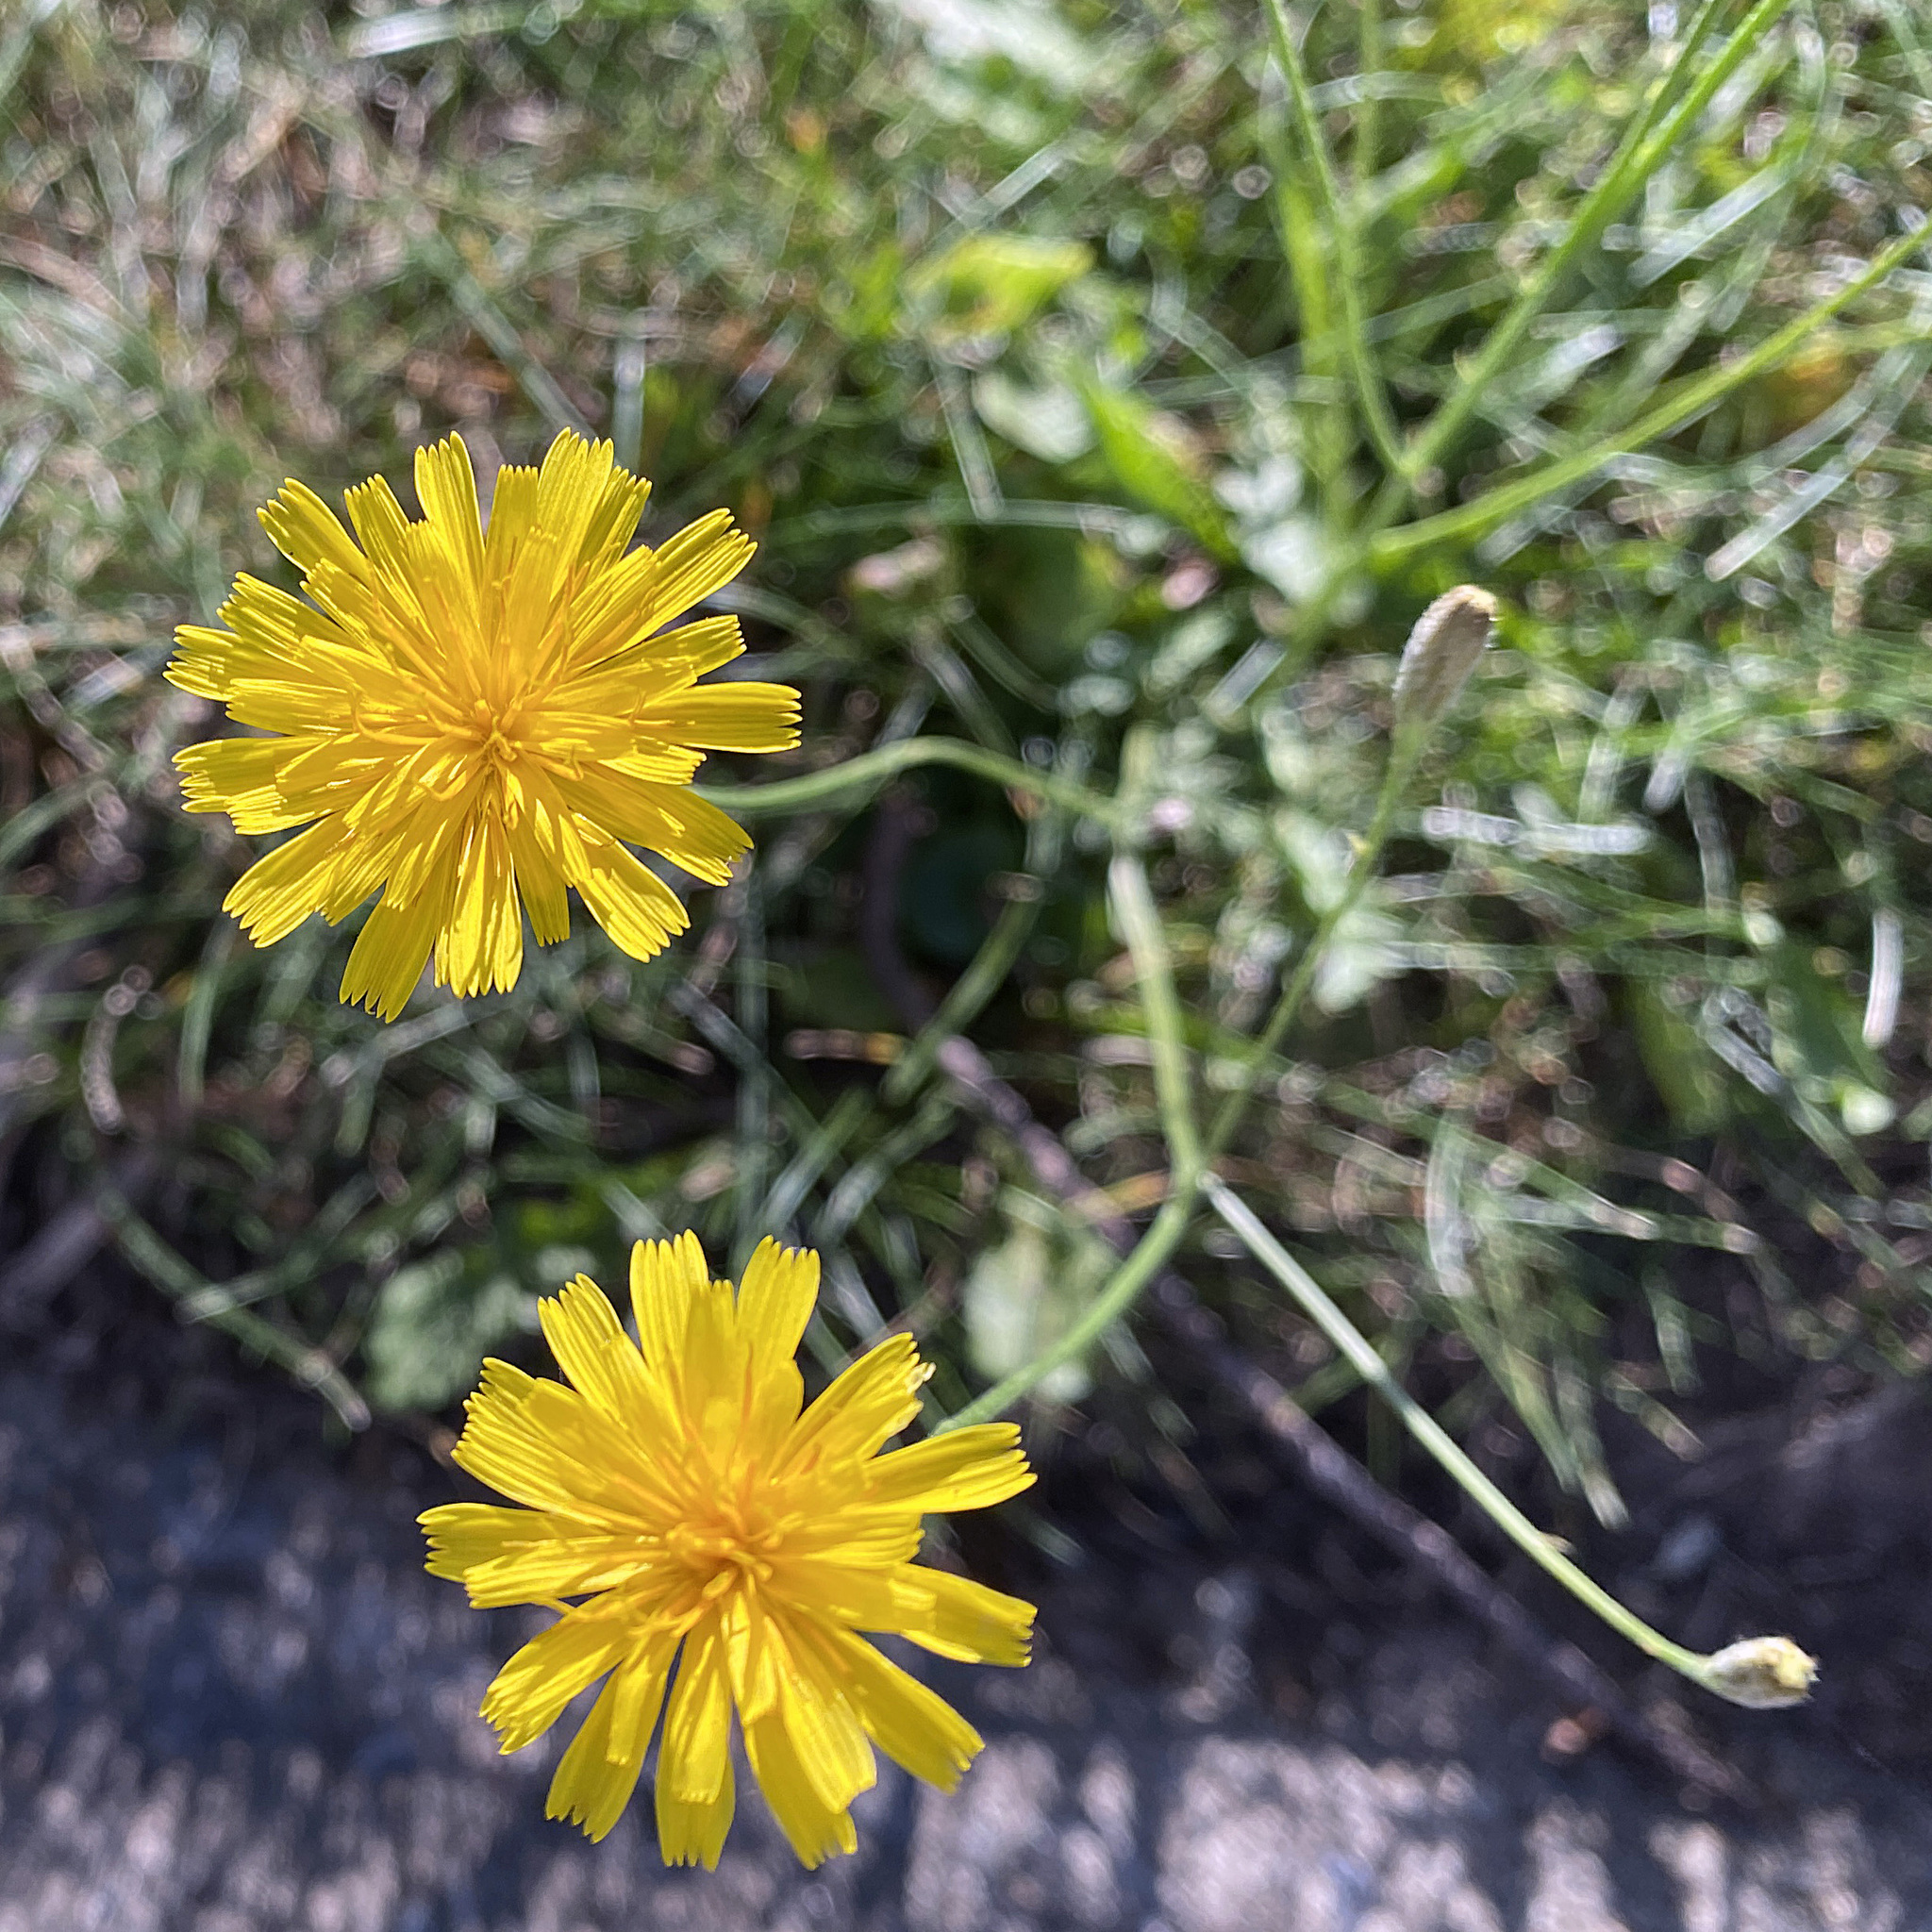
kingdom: Plantae
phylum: Tracheophyta
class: Magnoliopsida
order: Asterales
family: Asteraceae
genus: Scorzoneroides
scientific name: Scorzoneroides autumnalis
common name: Autumn hawkbit
